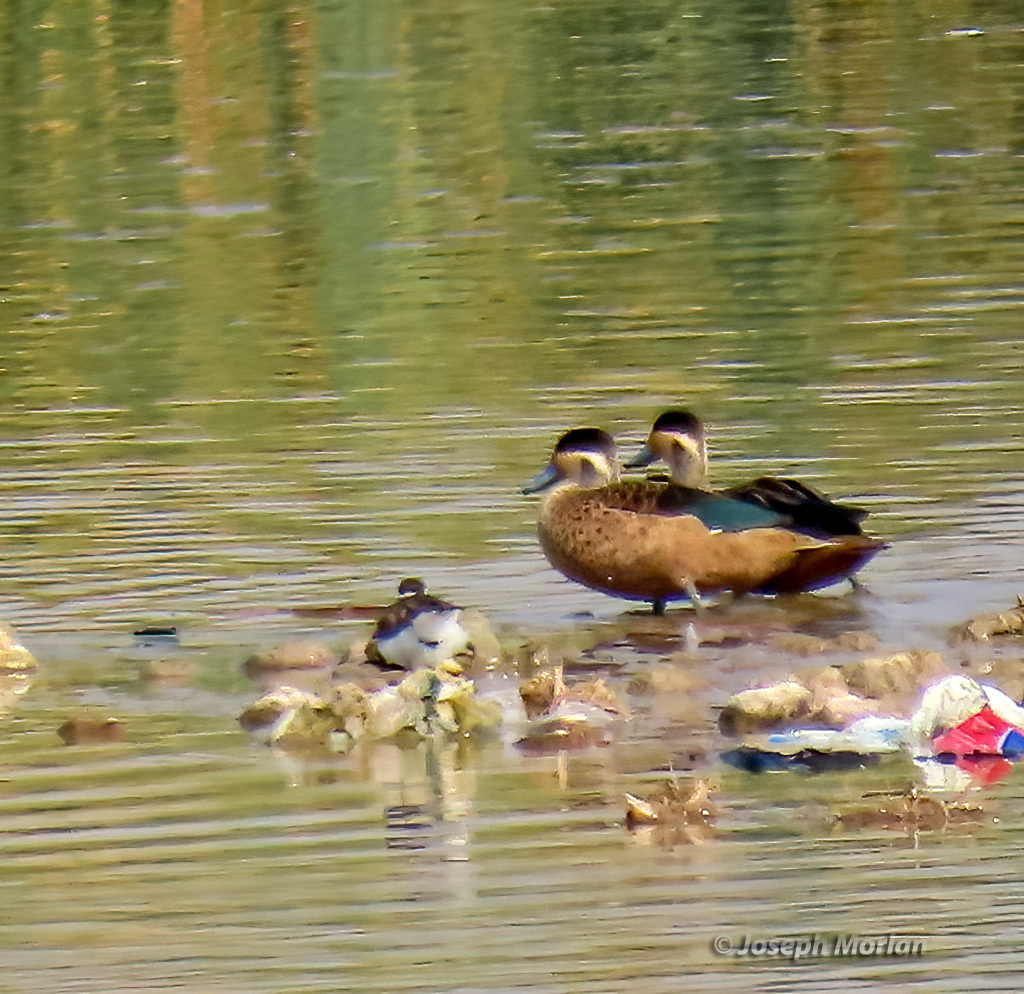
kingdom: Animalia
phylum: Chordata
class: Aves
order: Anseriformes
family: Anatidae
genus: Spatula
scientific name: Spatula hottentota
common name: Blue-billed teal
